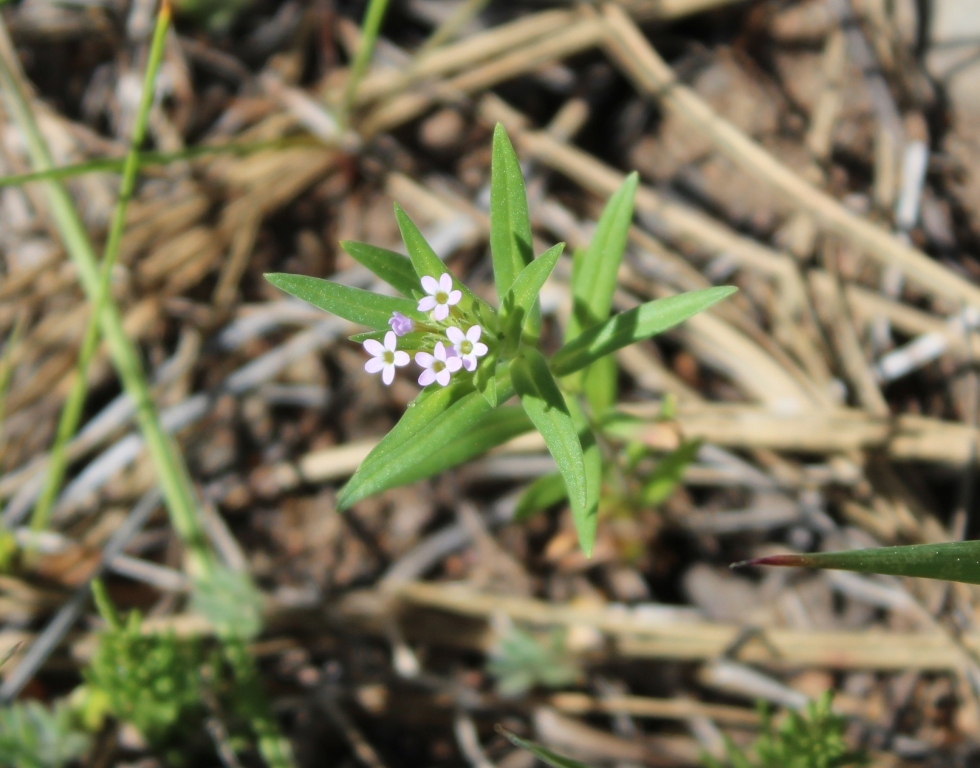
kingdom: Plantae
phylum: Tracheophyta
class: Magnoliopsida
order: Ericales
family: Polemoniaceae
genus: Collomia
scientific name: Collomia linearis
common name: Tiny trumpet
